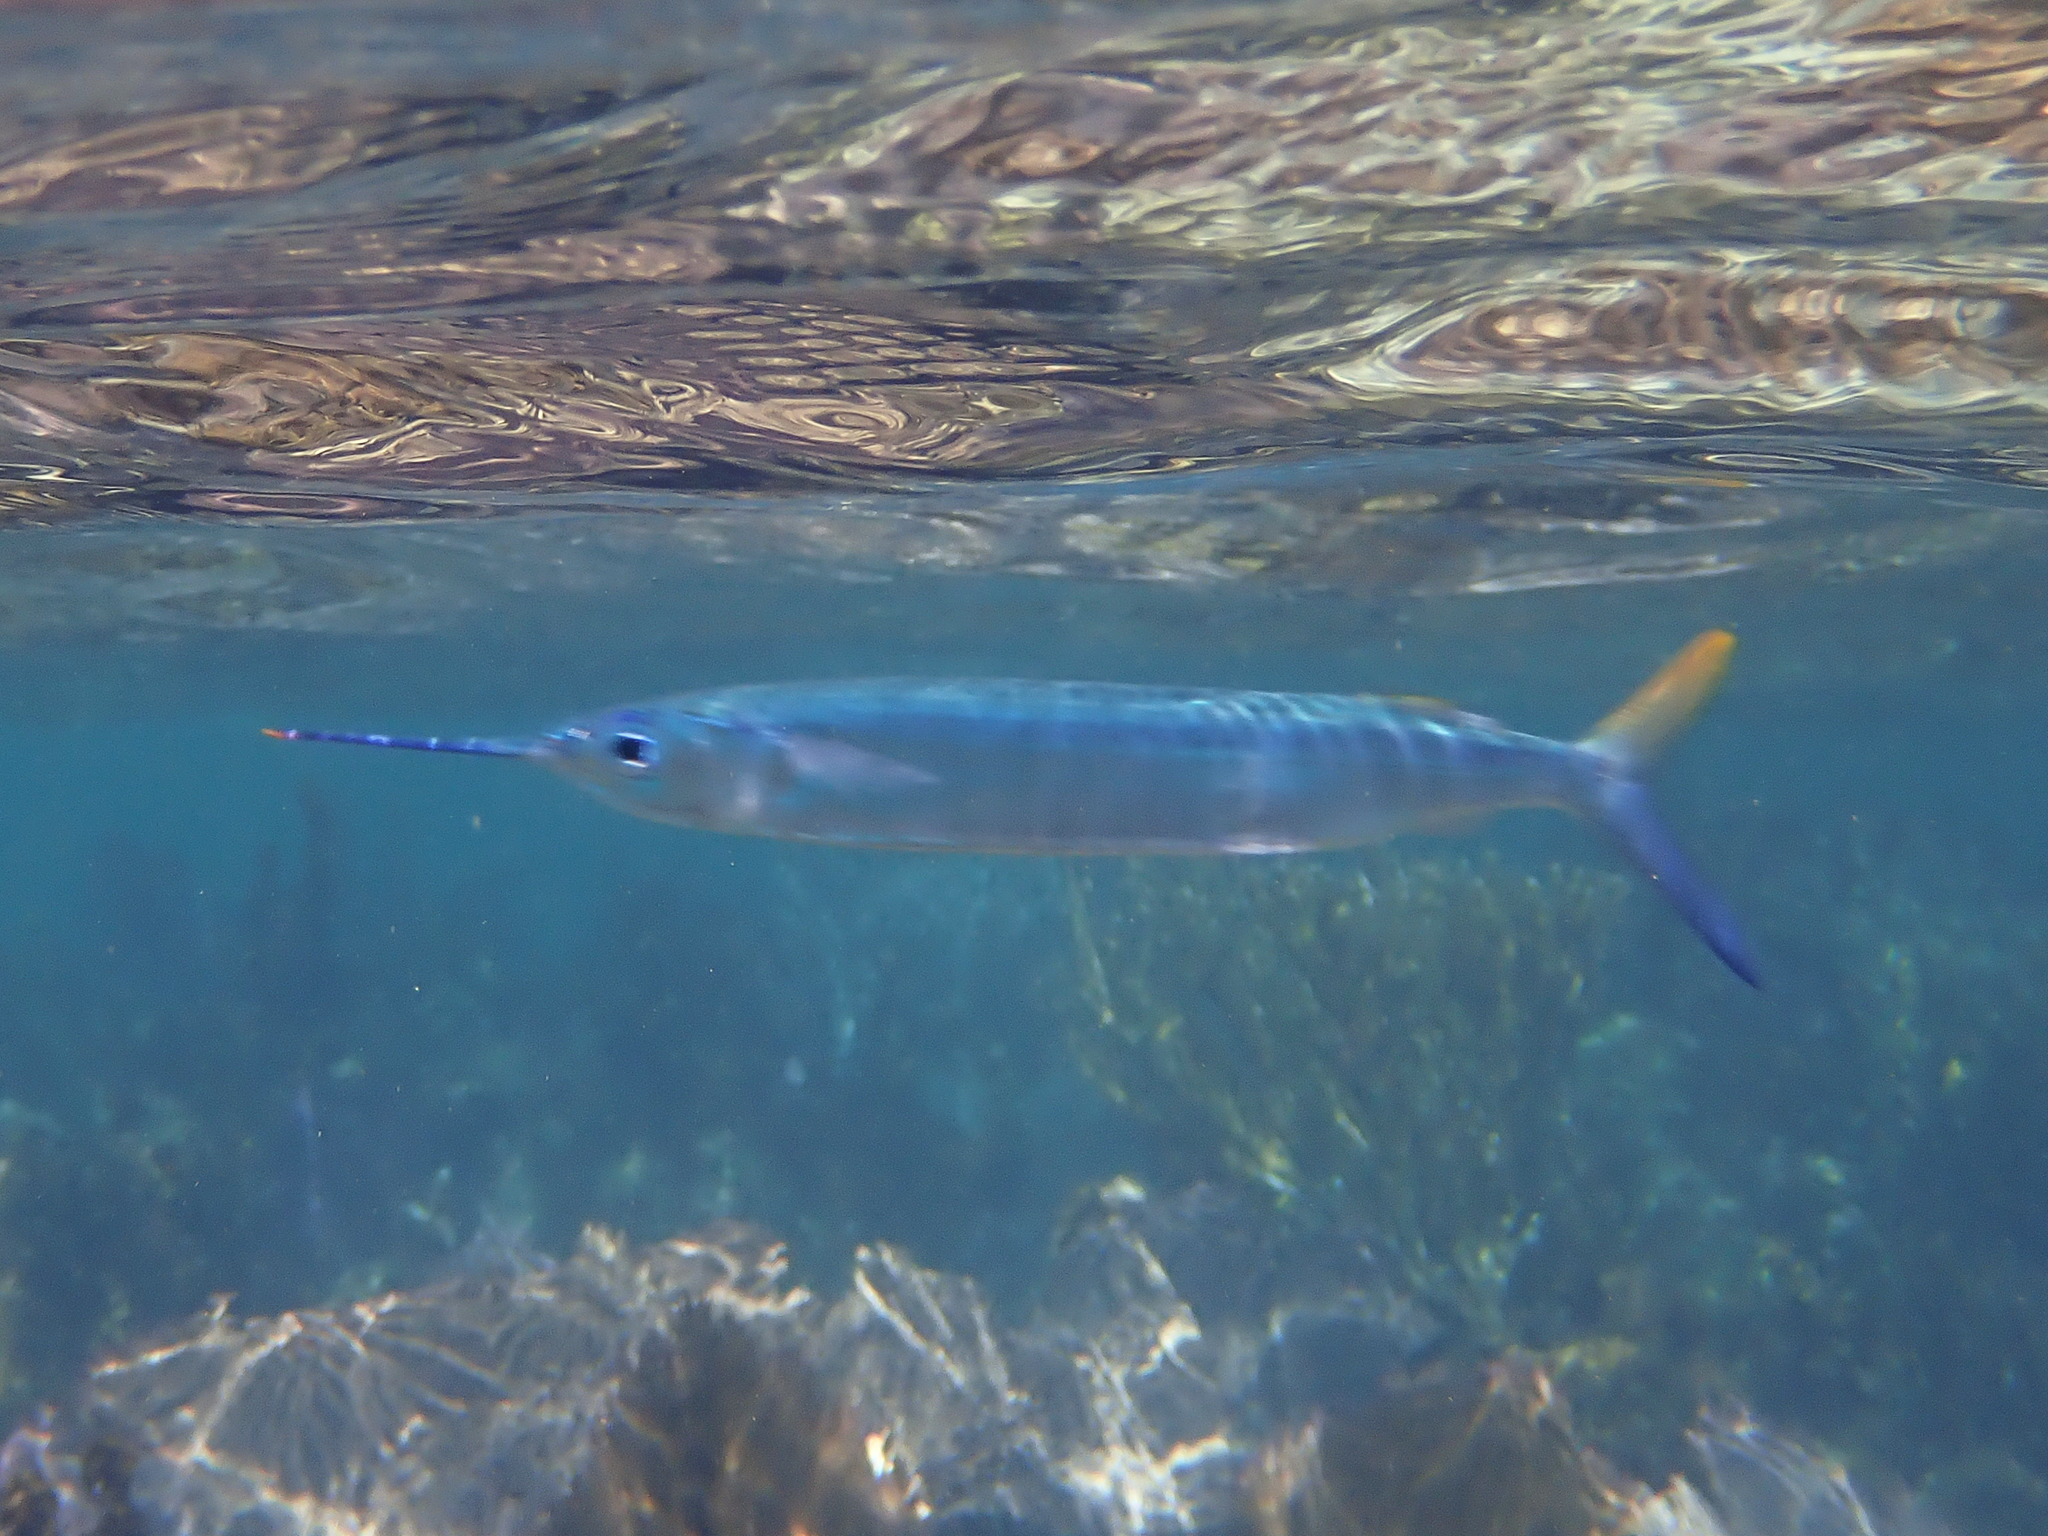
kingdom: Animalia
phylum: Chordata
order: Beloniformes
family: Hemiramphidae
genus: Hemiramphus
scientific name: Hemiramphus brasiliensis
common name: Ballyhoo
